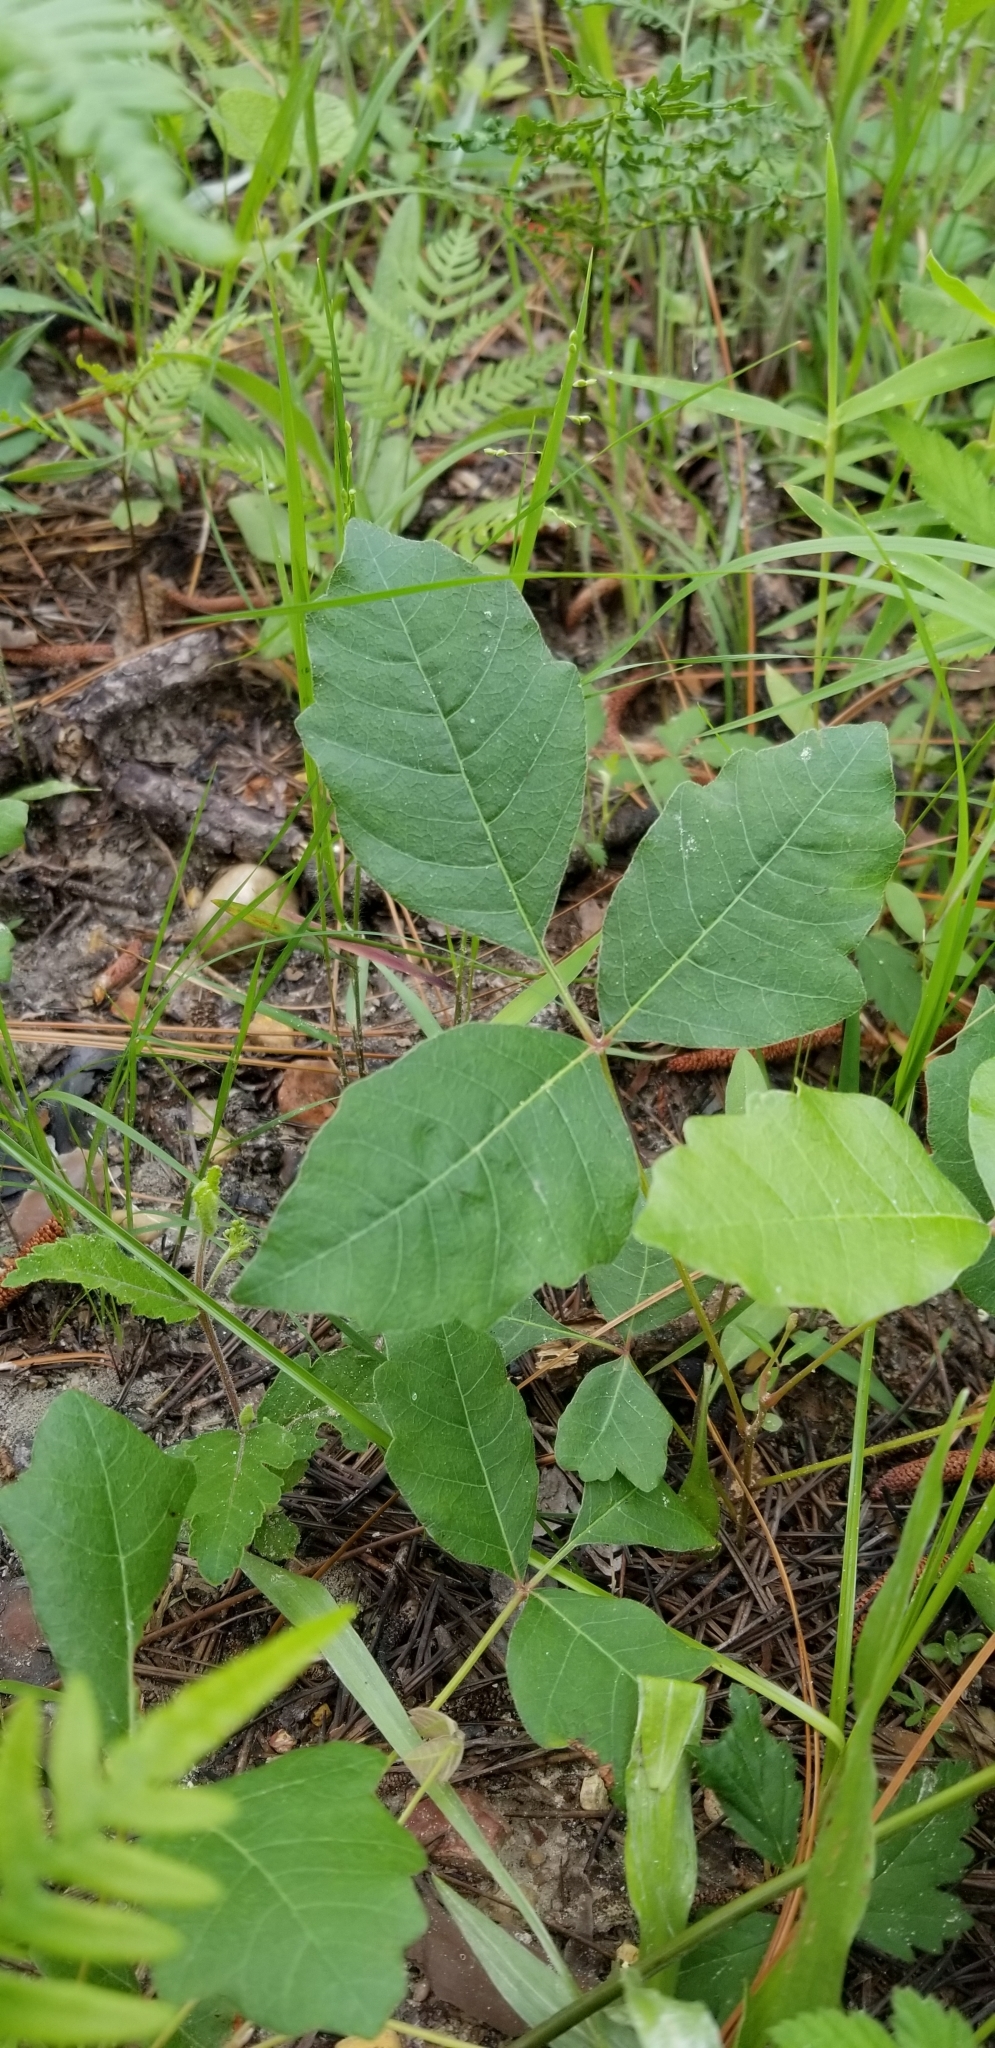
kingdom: Plantae
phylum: Tracheophyta
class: Magnoliopsida
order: Sapindales
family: Anacardiaceae
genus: Toxicodendron
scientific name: Toxicodendron radicans
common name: Poison ivy
